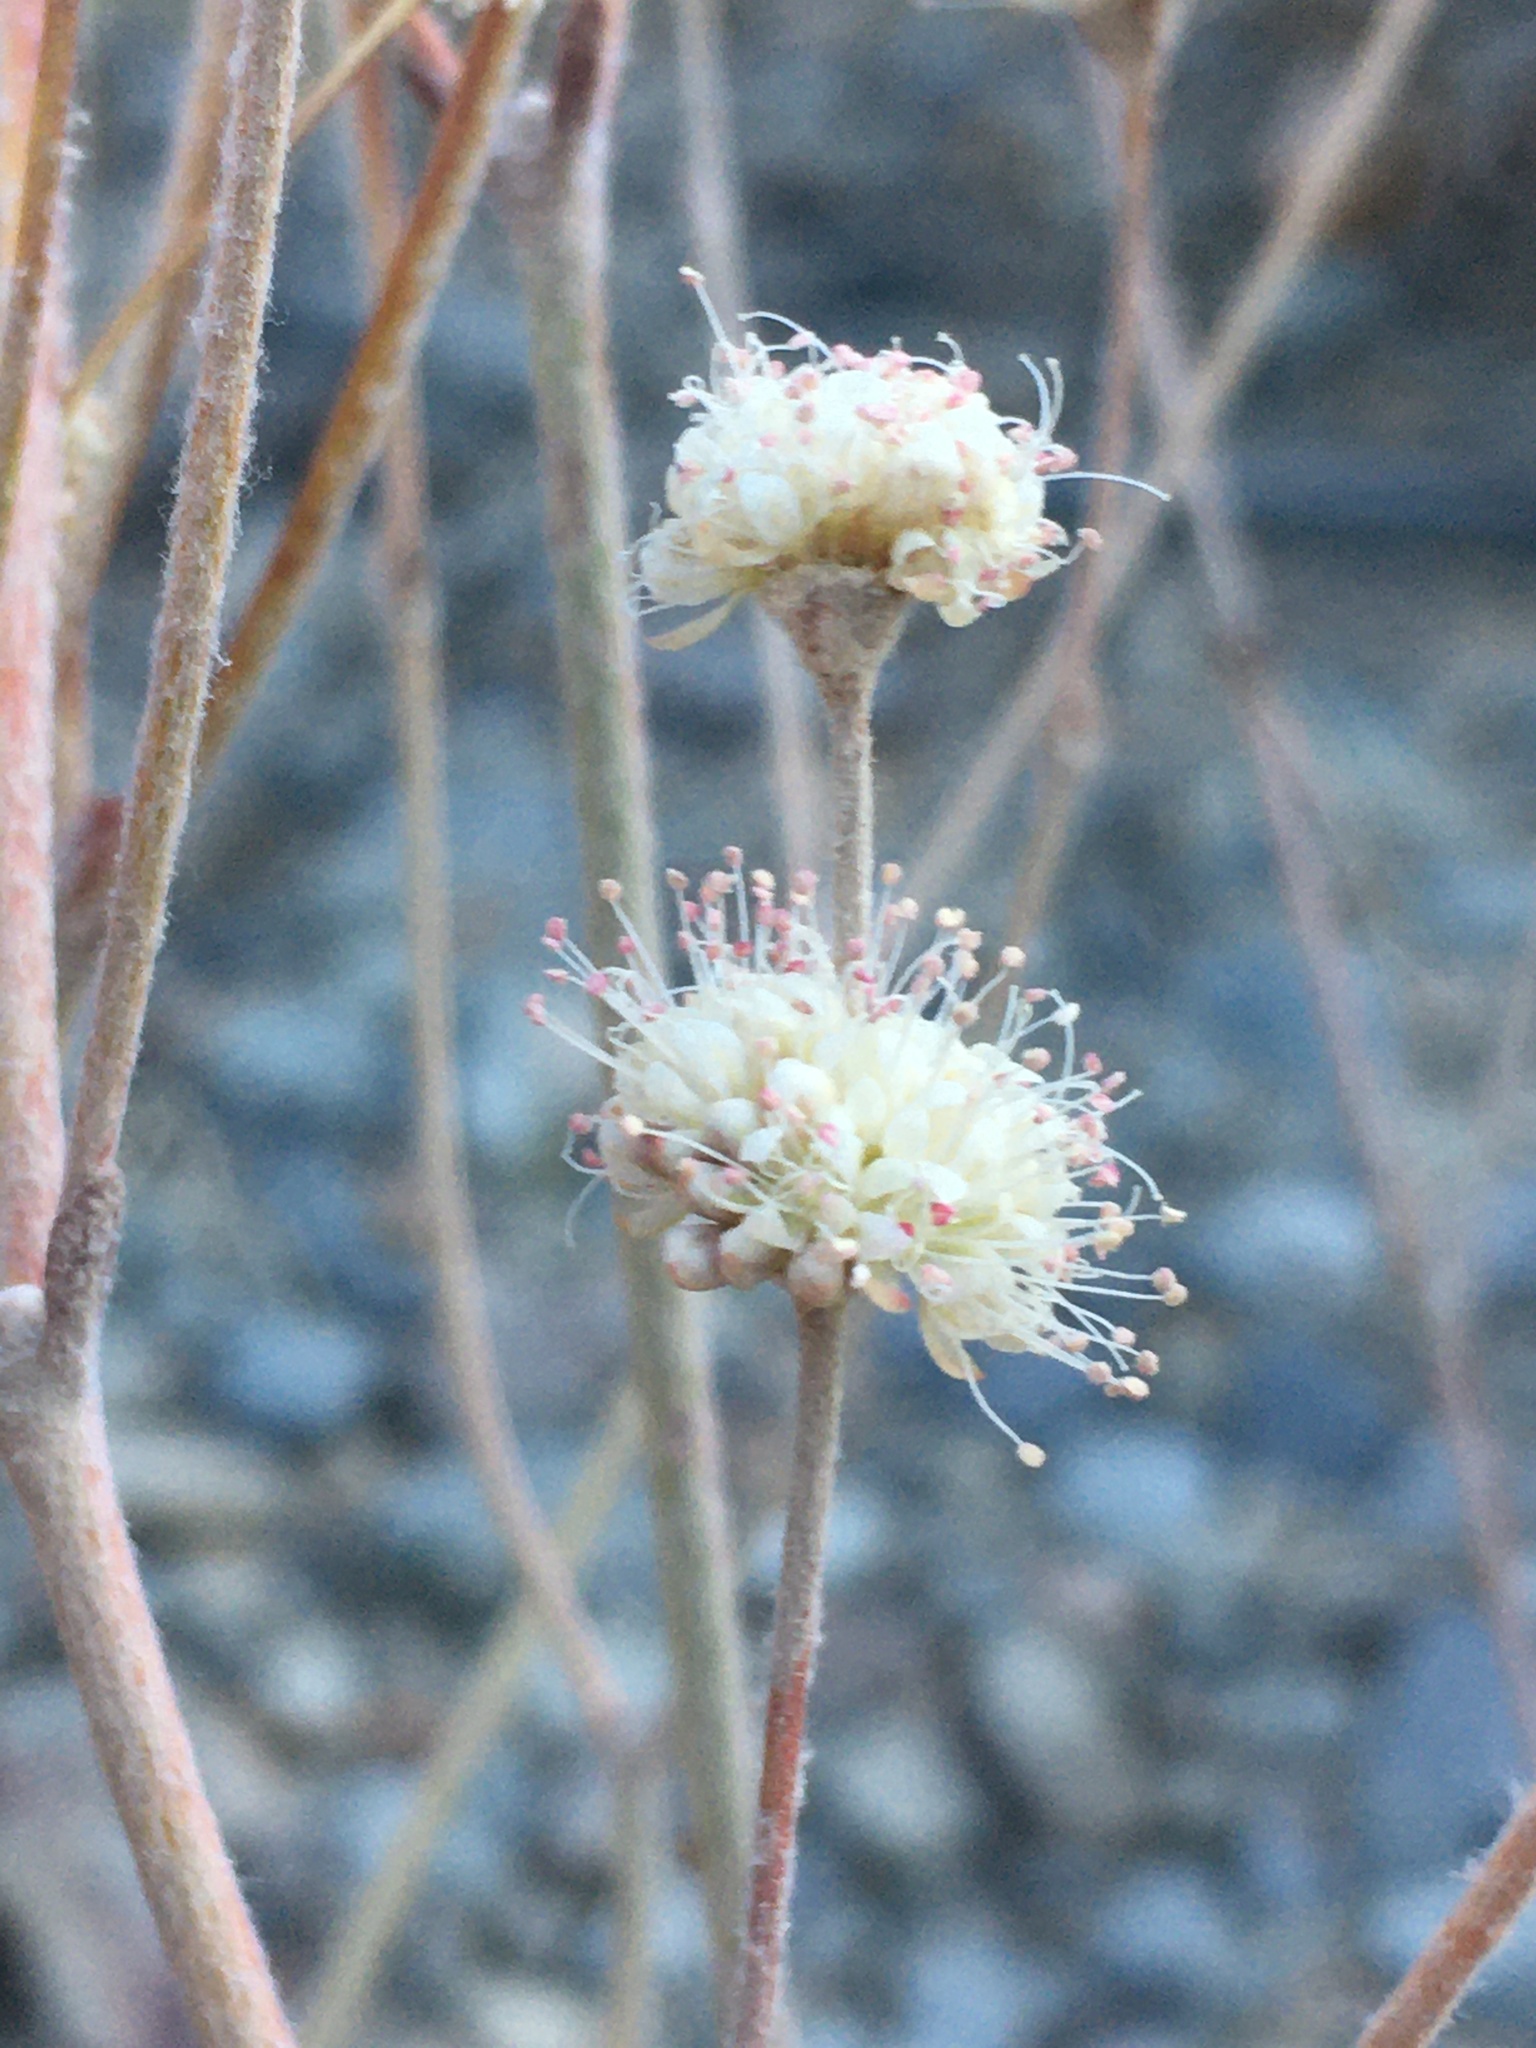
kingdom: Plantae
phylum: Tracheophyta
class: Magnoliopsida
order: Caryophyllales
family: Polygonaceae
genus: Eriogonum
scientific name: Eriogonum mensicola
